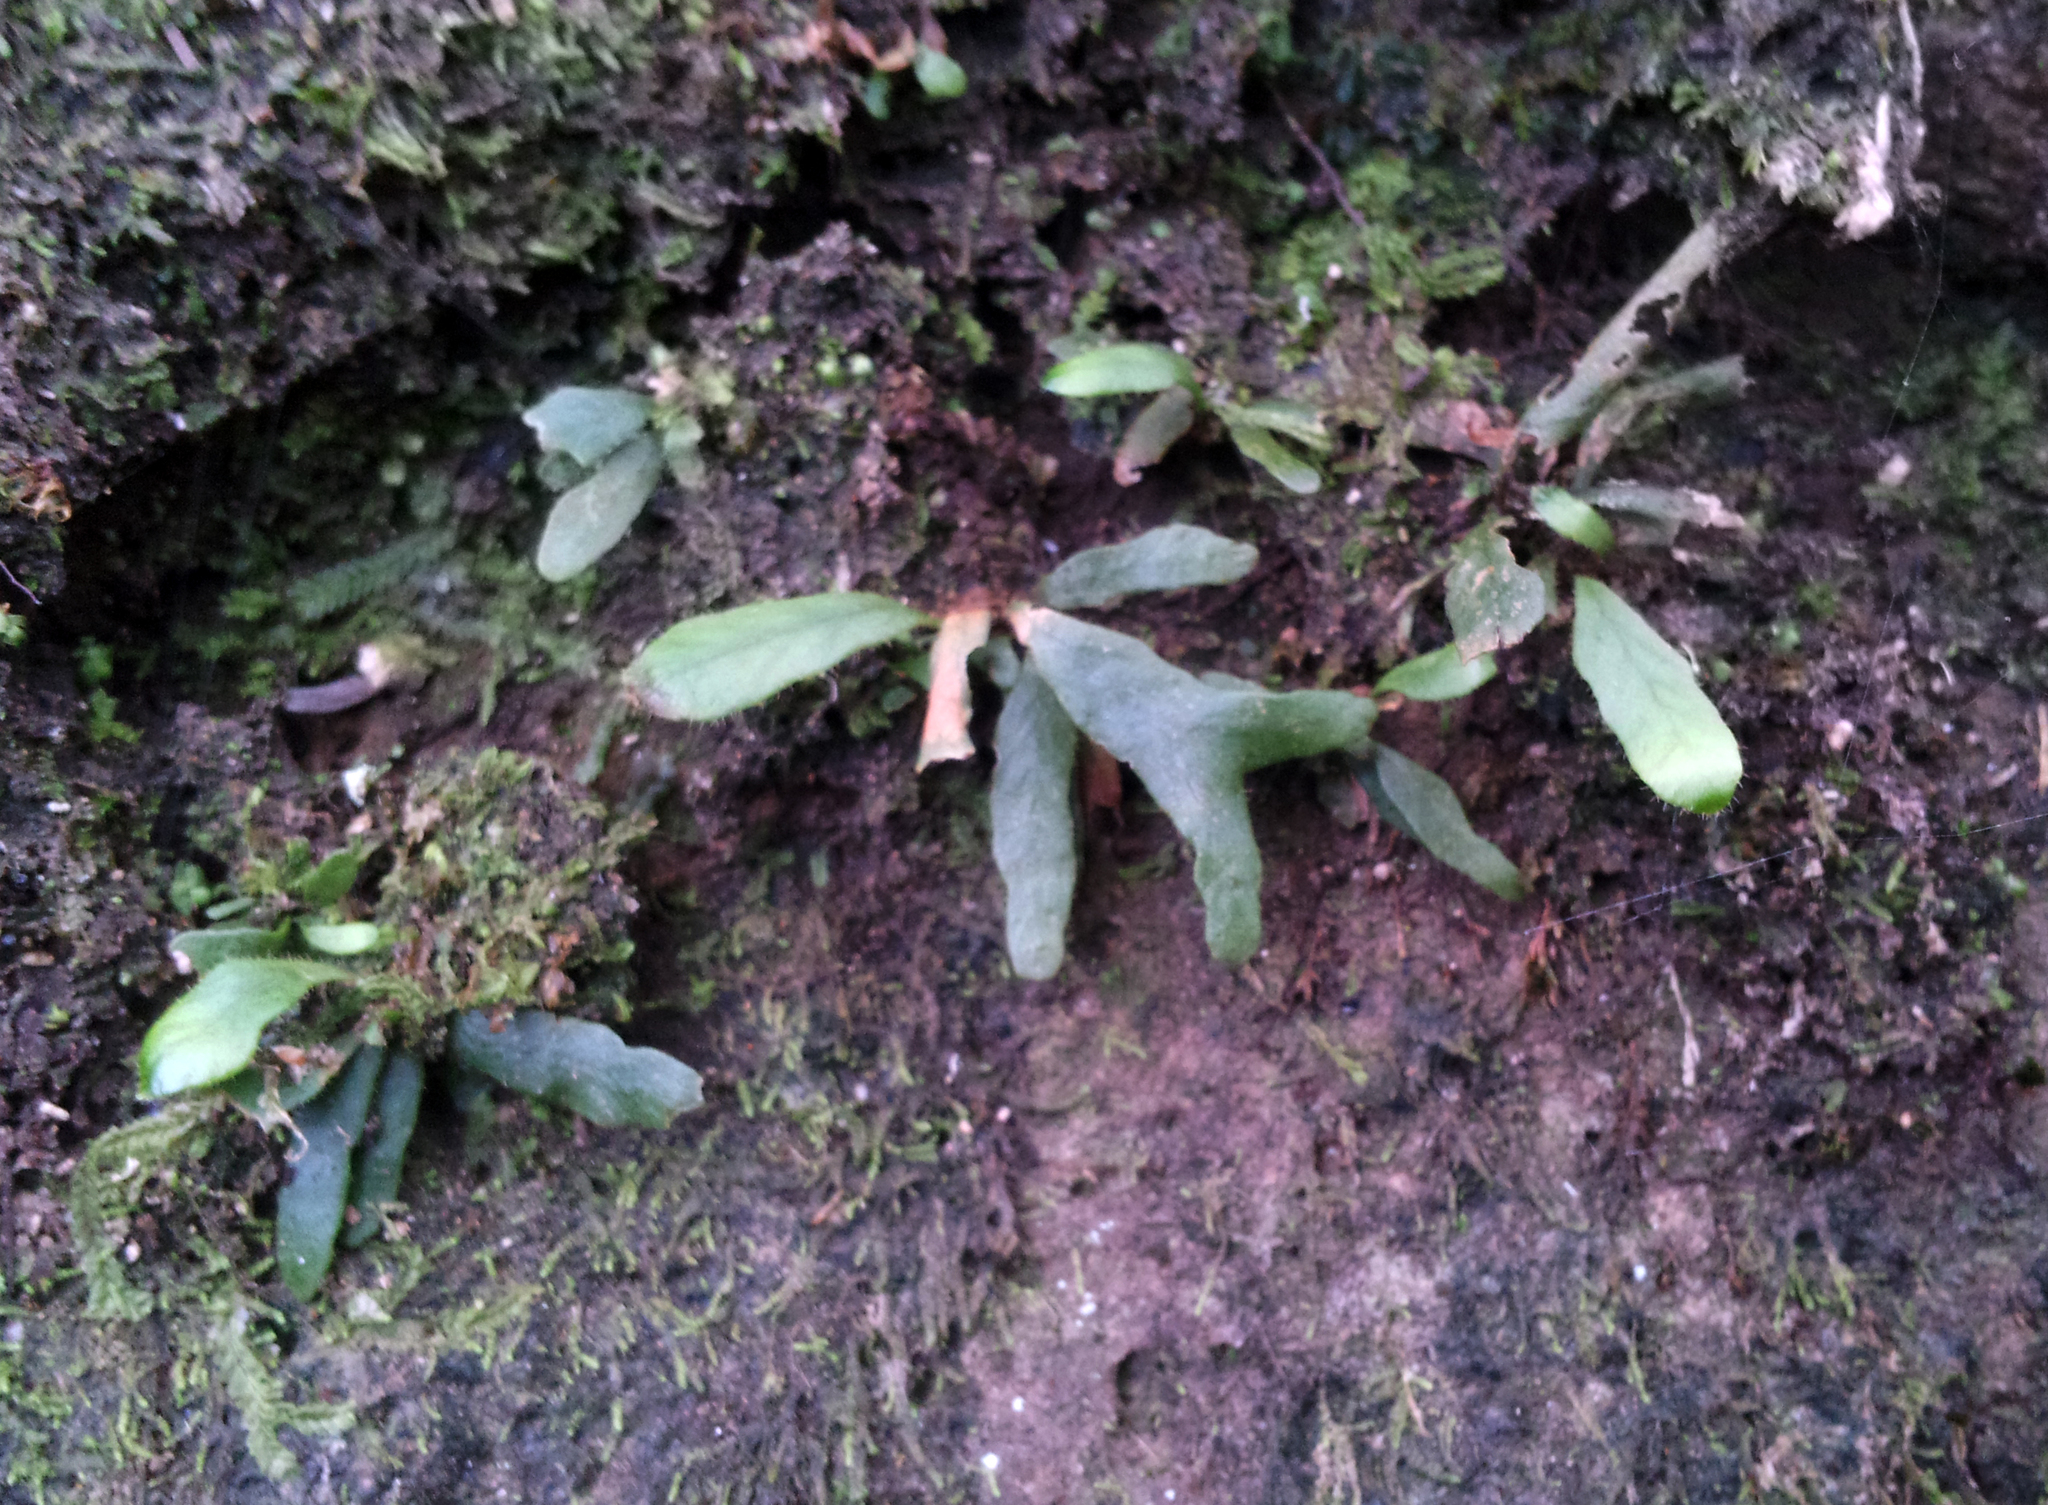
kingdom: Plantae
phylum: Tracheophyta
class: Polypodiopsida
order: Polypodiales
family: Polypodiaceae
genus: Notogrammitis
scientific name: Notogrammitis ciliata
